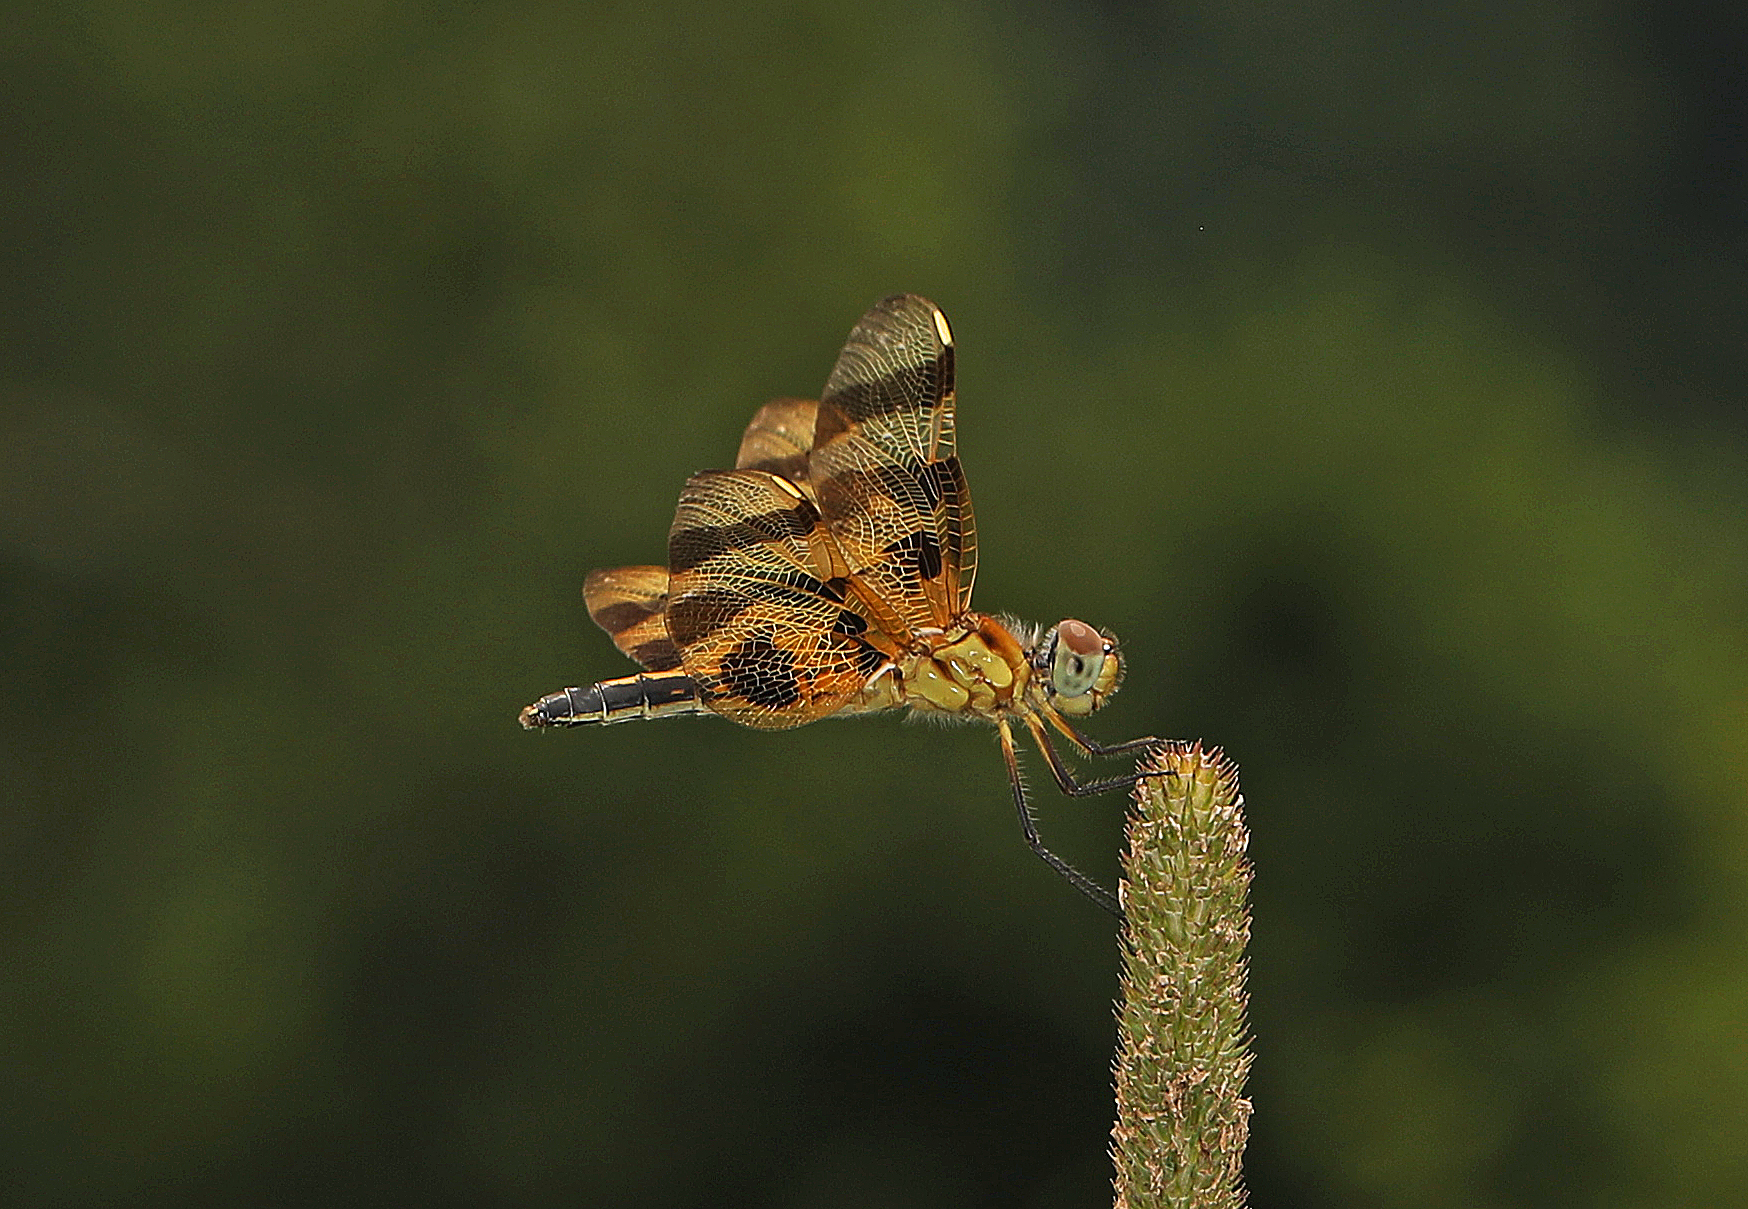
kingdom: Animalia
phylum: Arthropoda
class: Insecta
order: Odonata
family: Libellulidae
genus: Celithemis
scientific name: Celithemis eponina
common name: Halloween pennant
